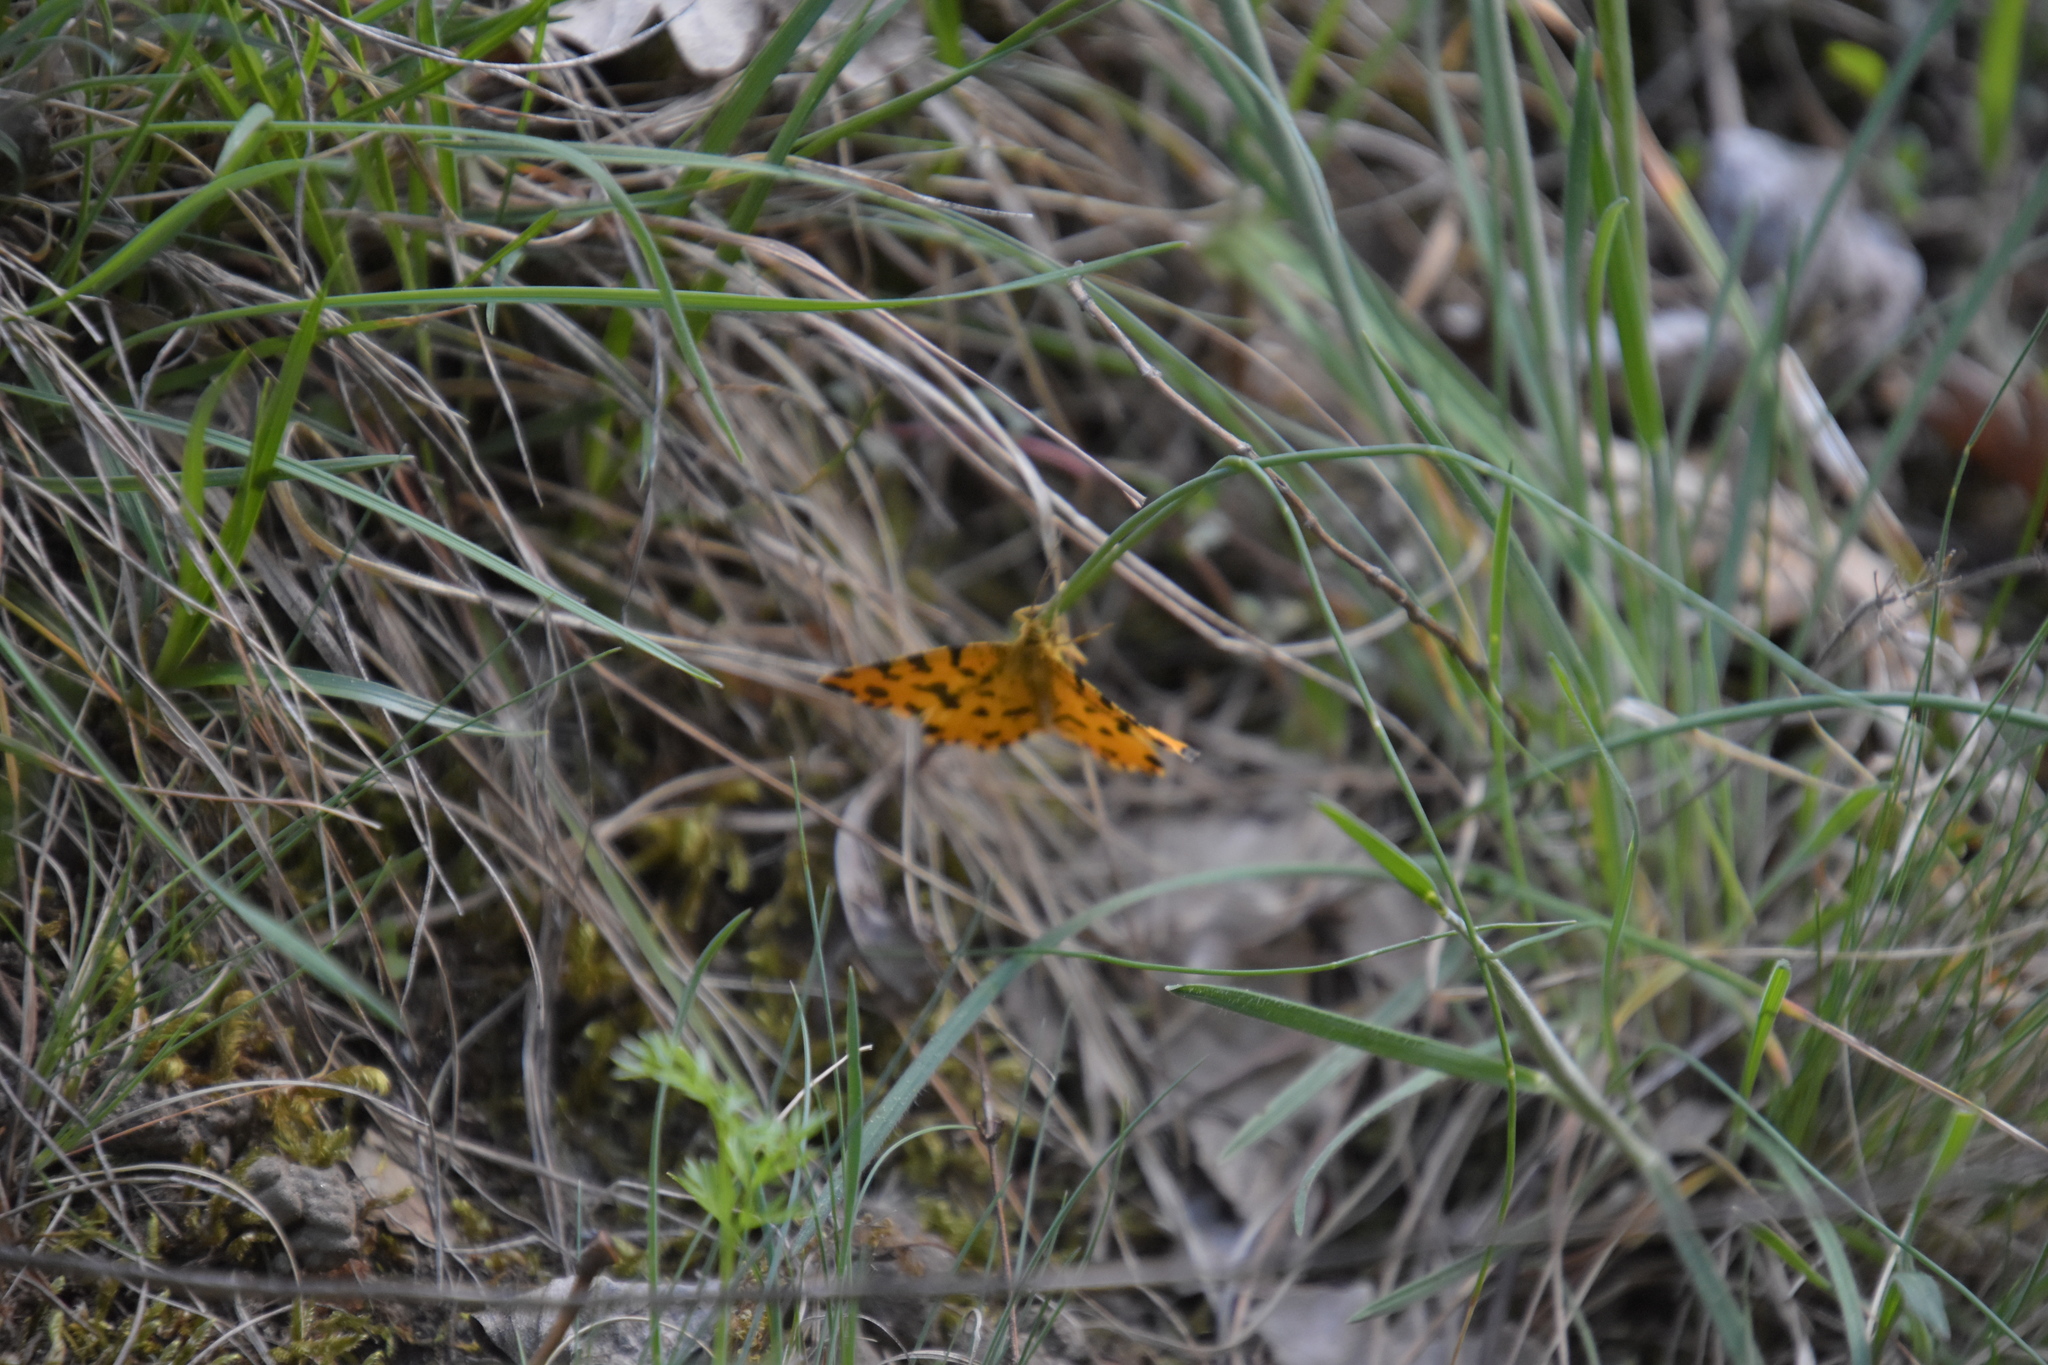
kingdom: Animalia
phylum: Arthropoda
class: Insecta
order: Lepidoptera
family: Geometridae
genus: Pseudopanthera
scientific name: Pseudopanthera macularia
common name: Speckled yellow
